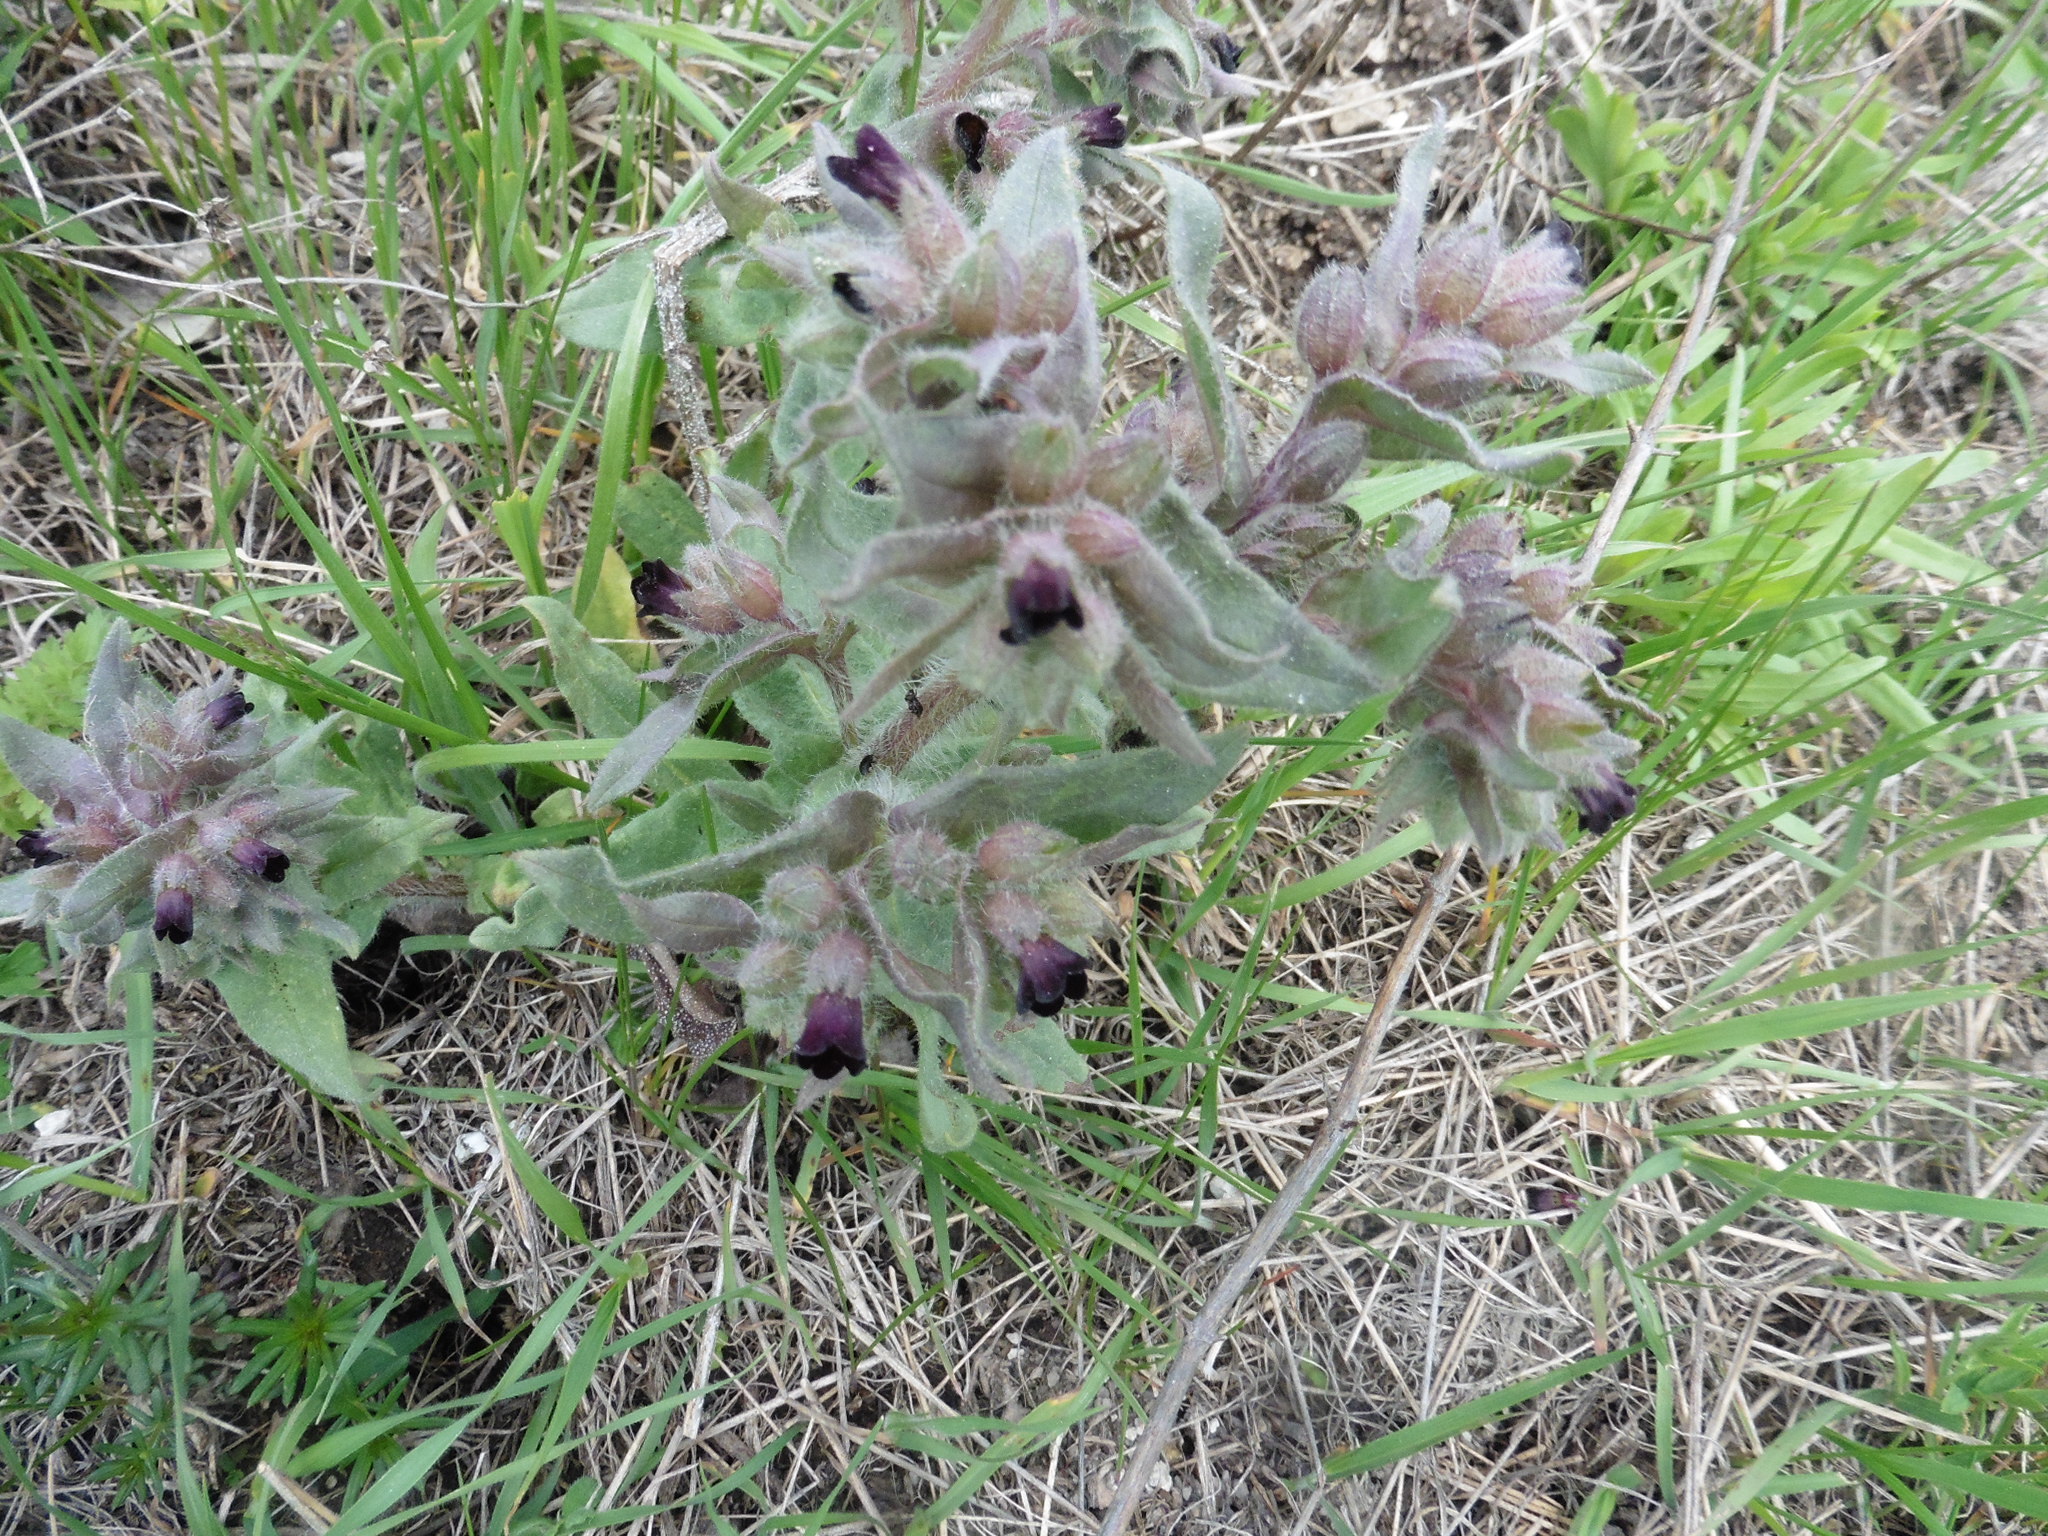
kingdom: Plantae
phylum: Tracheophyta
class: Magnoliopsida
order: Boraginales
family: Boraginaceae
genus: Nonea
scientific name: Nonea pulla
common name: Brown nonea
